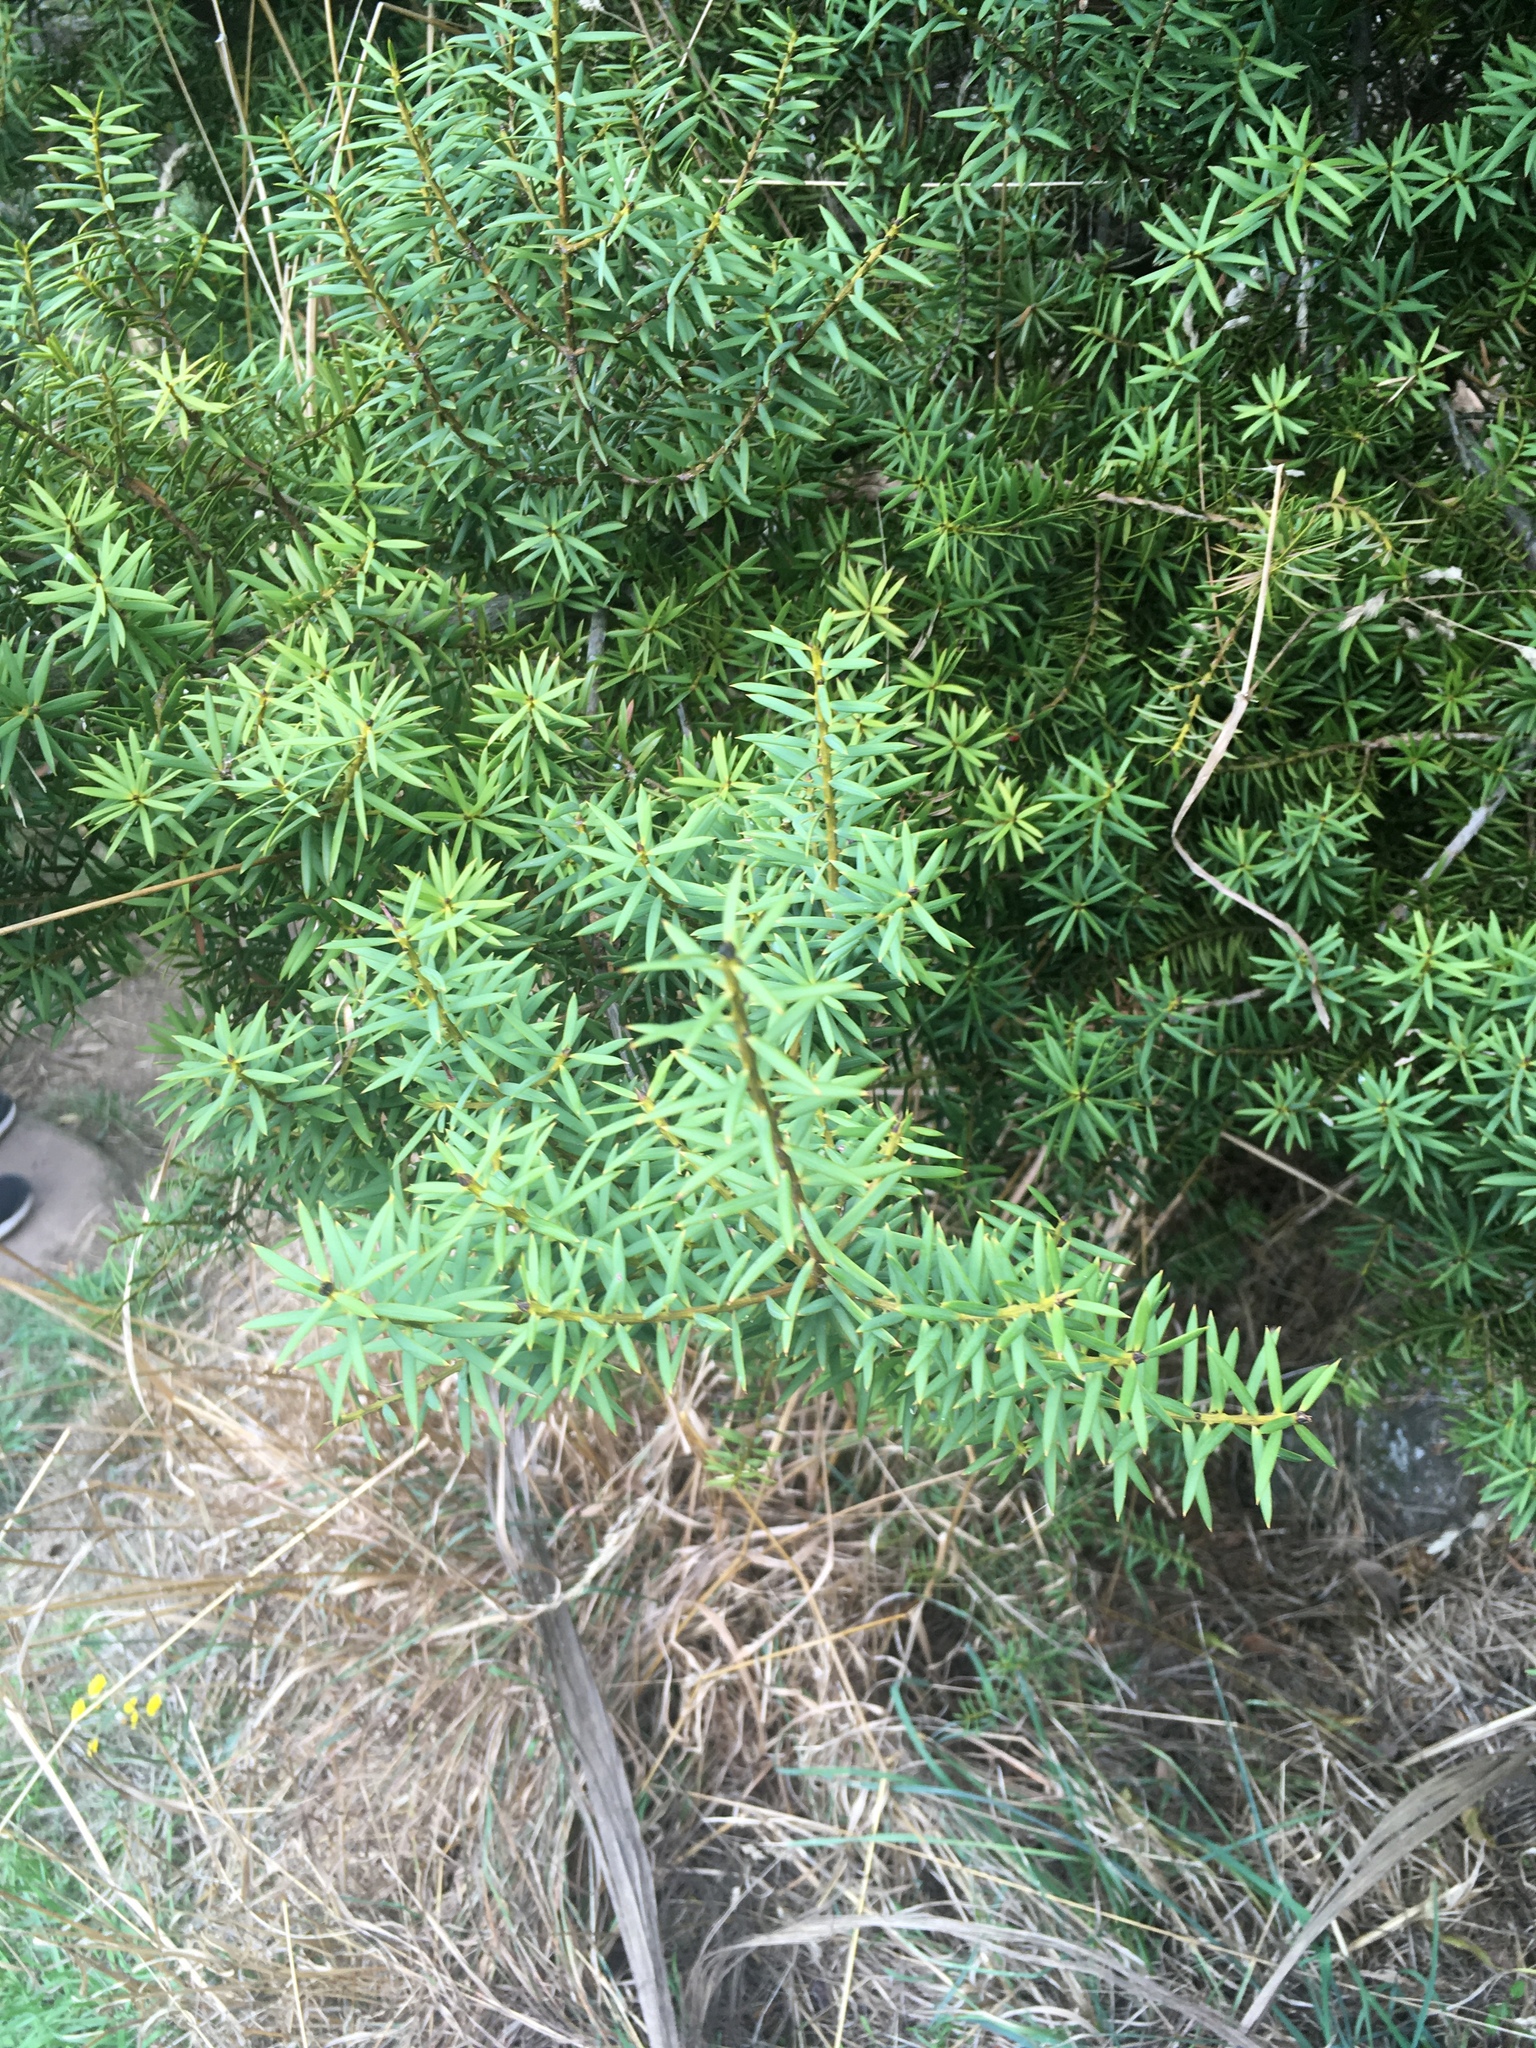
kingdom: Plantae
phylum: Tracheophyta
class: Pinopsida
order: Pinales
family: Podocarpaceae
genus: Podocarpus
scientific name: Podocarpus totara
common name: Totara
